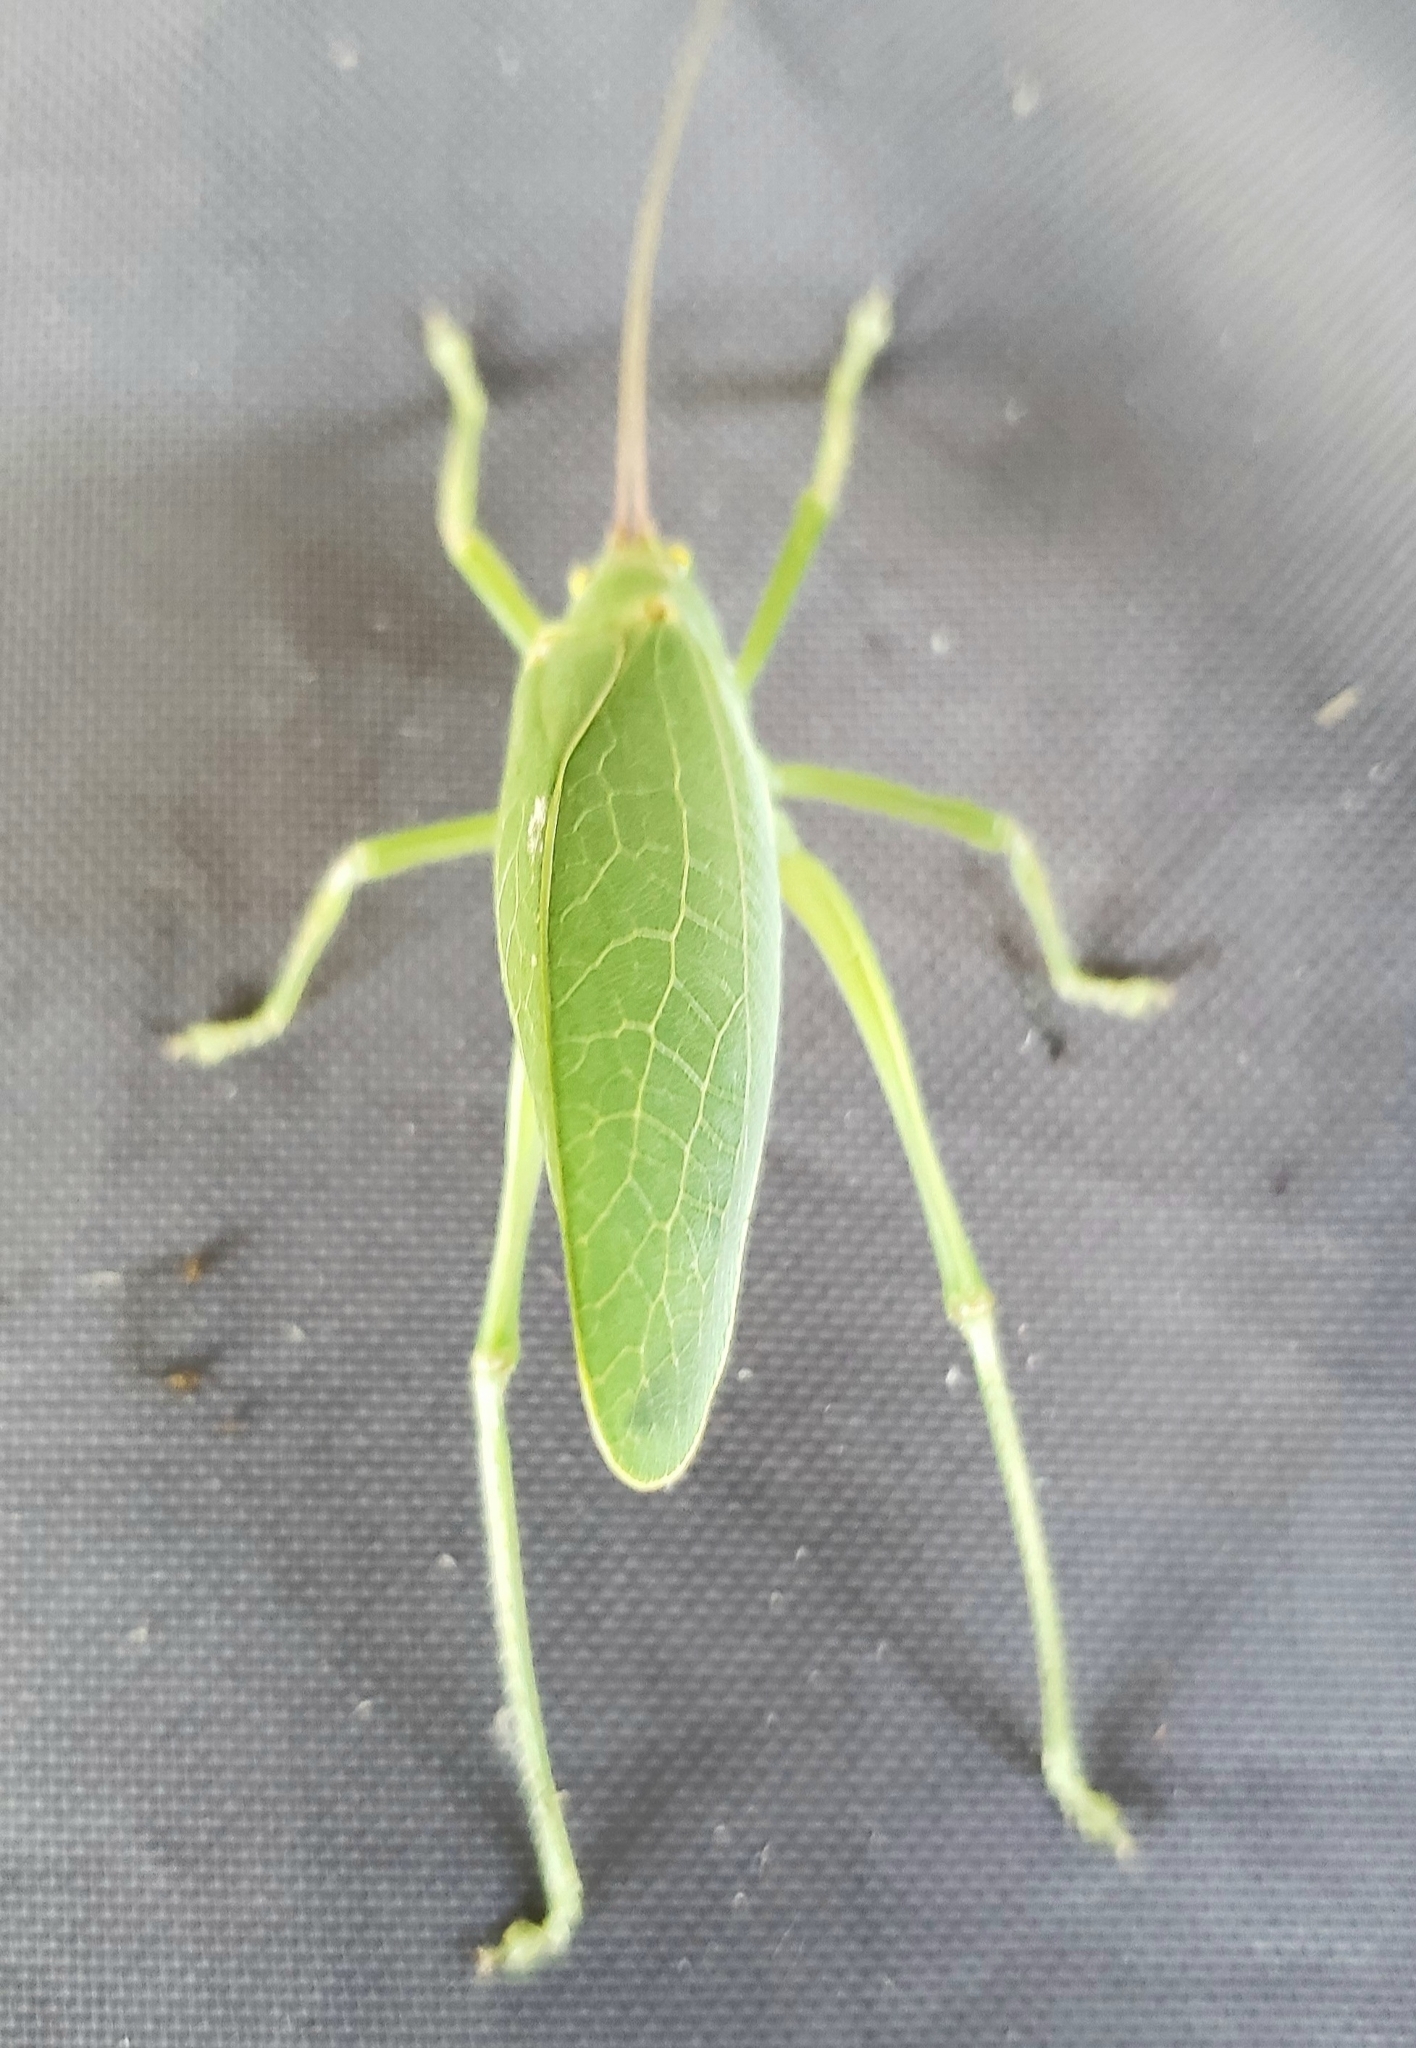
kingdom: Animalia
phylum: Arthropoda
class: Insecta
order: Orthoptera
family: Tettigoniidae
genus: Pterophylla
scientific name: Pterophylla camellifolia
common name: Common true katydid
